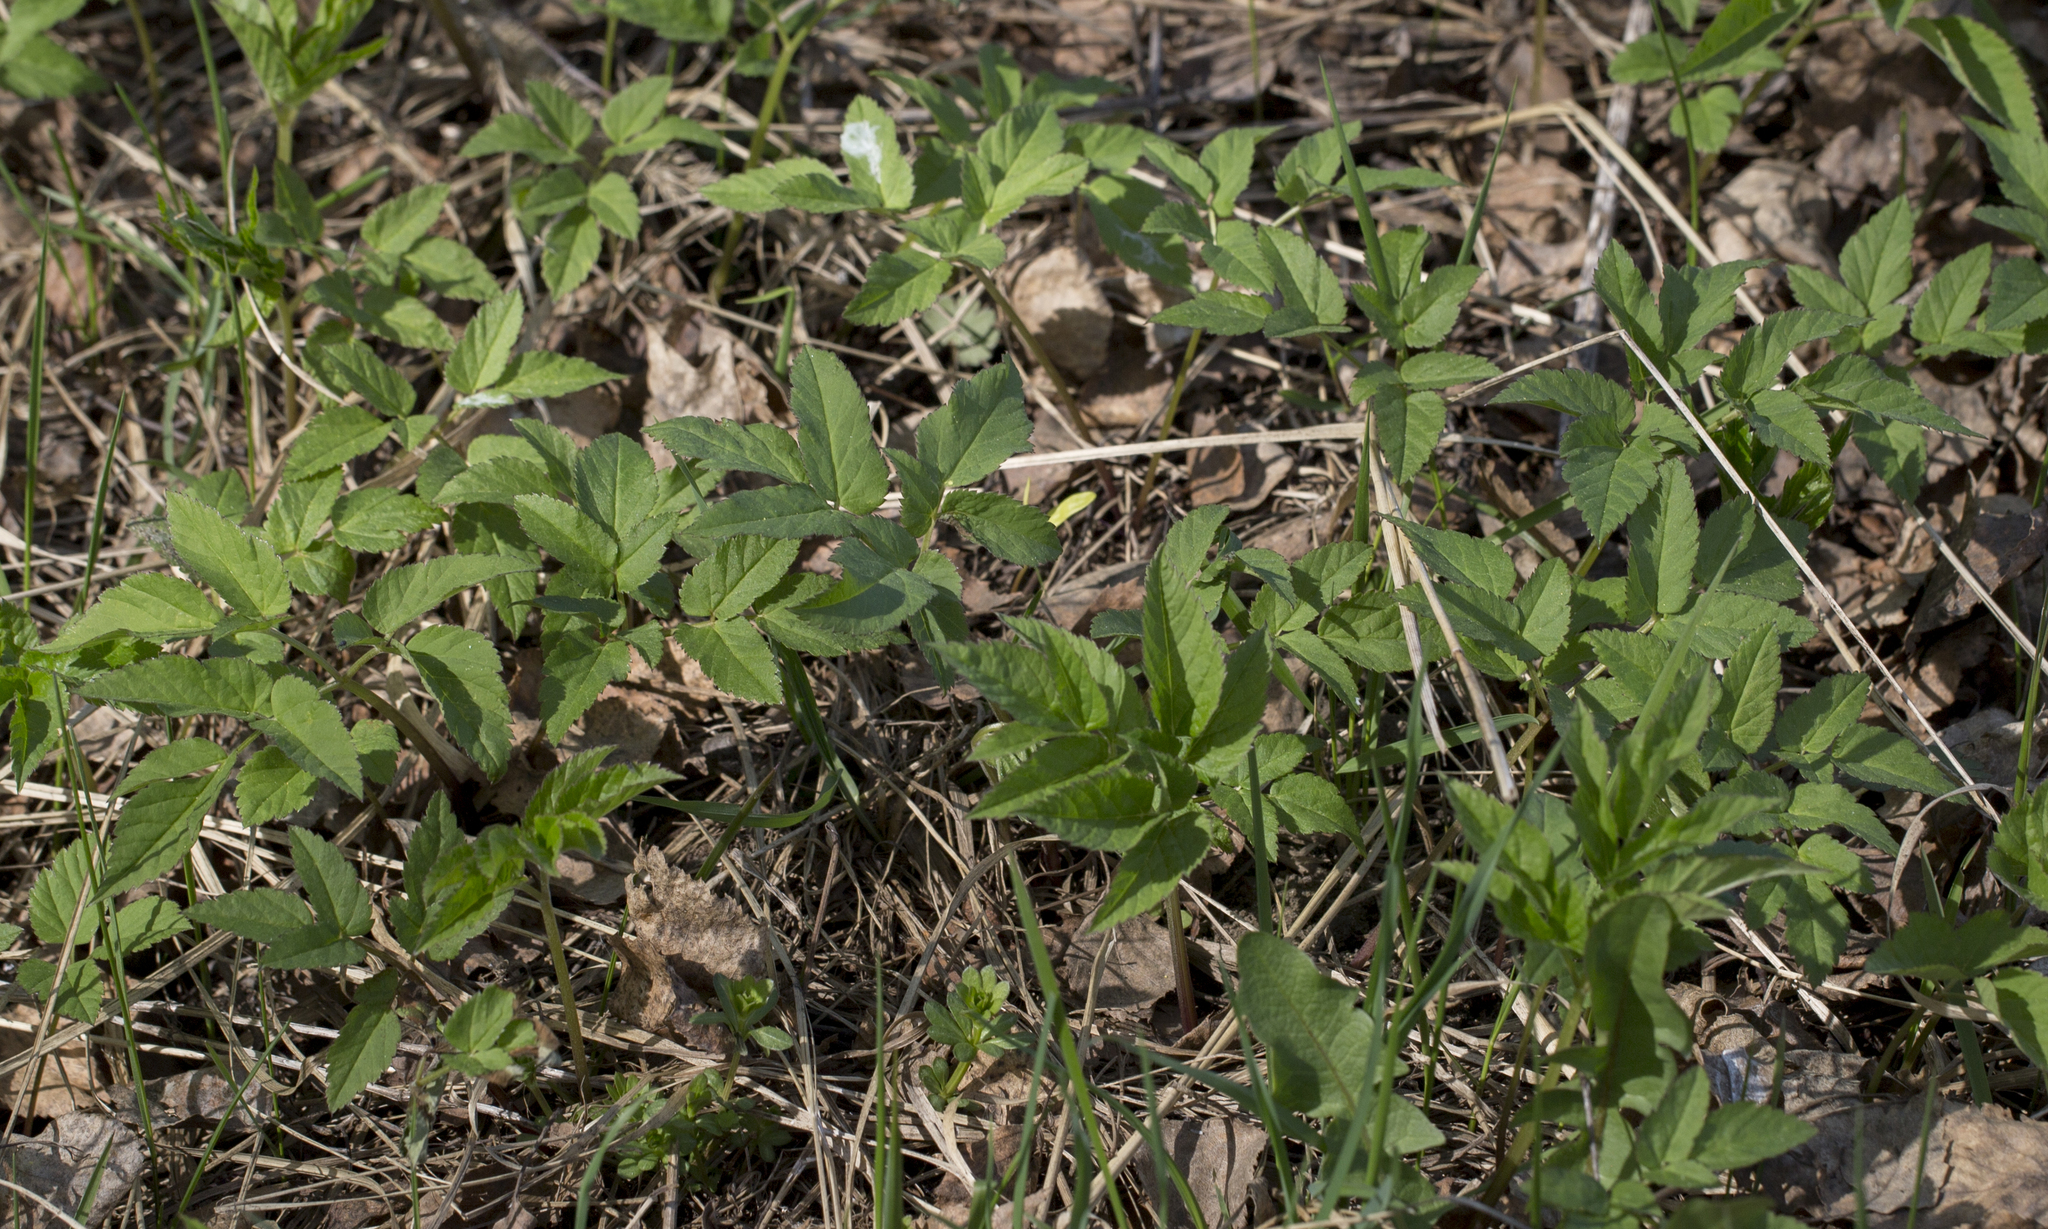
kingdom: Plantae
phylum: Tracheophyta
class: Magnoliopsida
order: Apiales
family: Apiaceae
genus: Aegopodium
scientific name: Aegopodium podagraria
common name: Ground-elder
